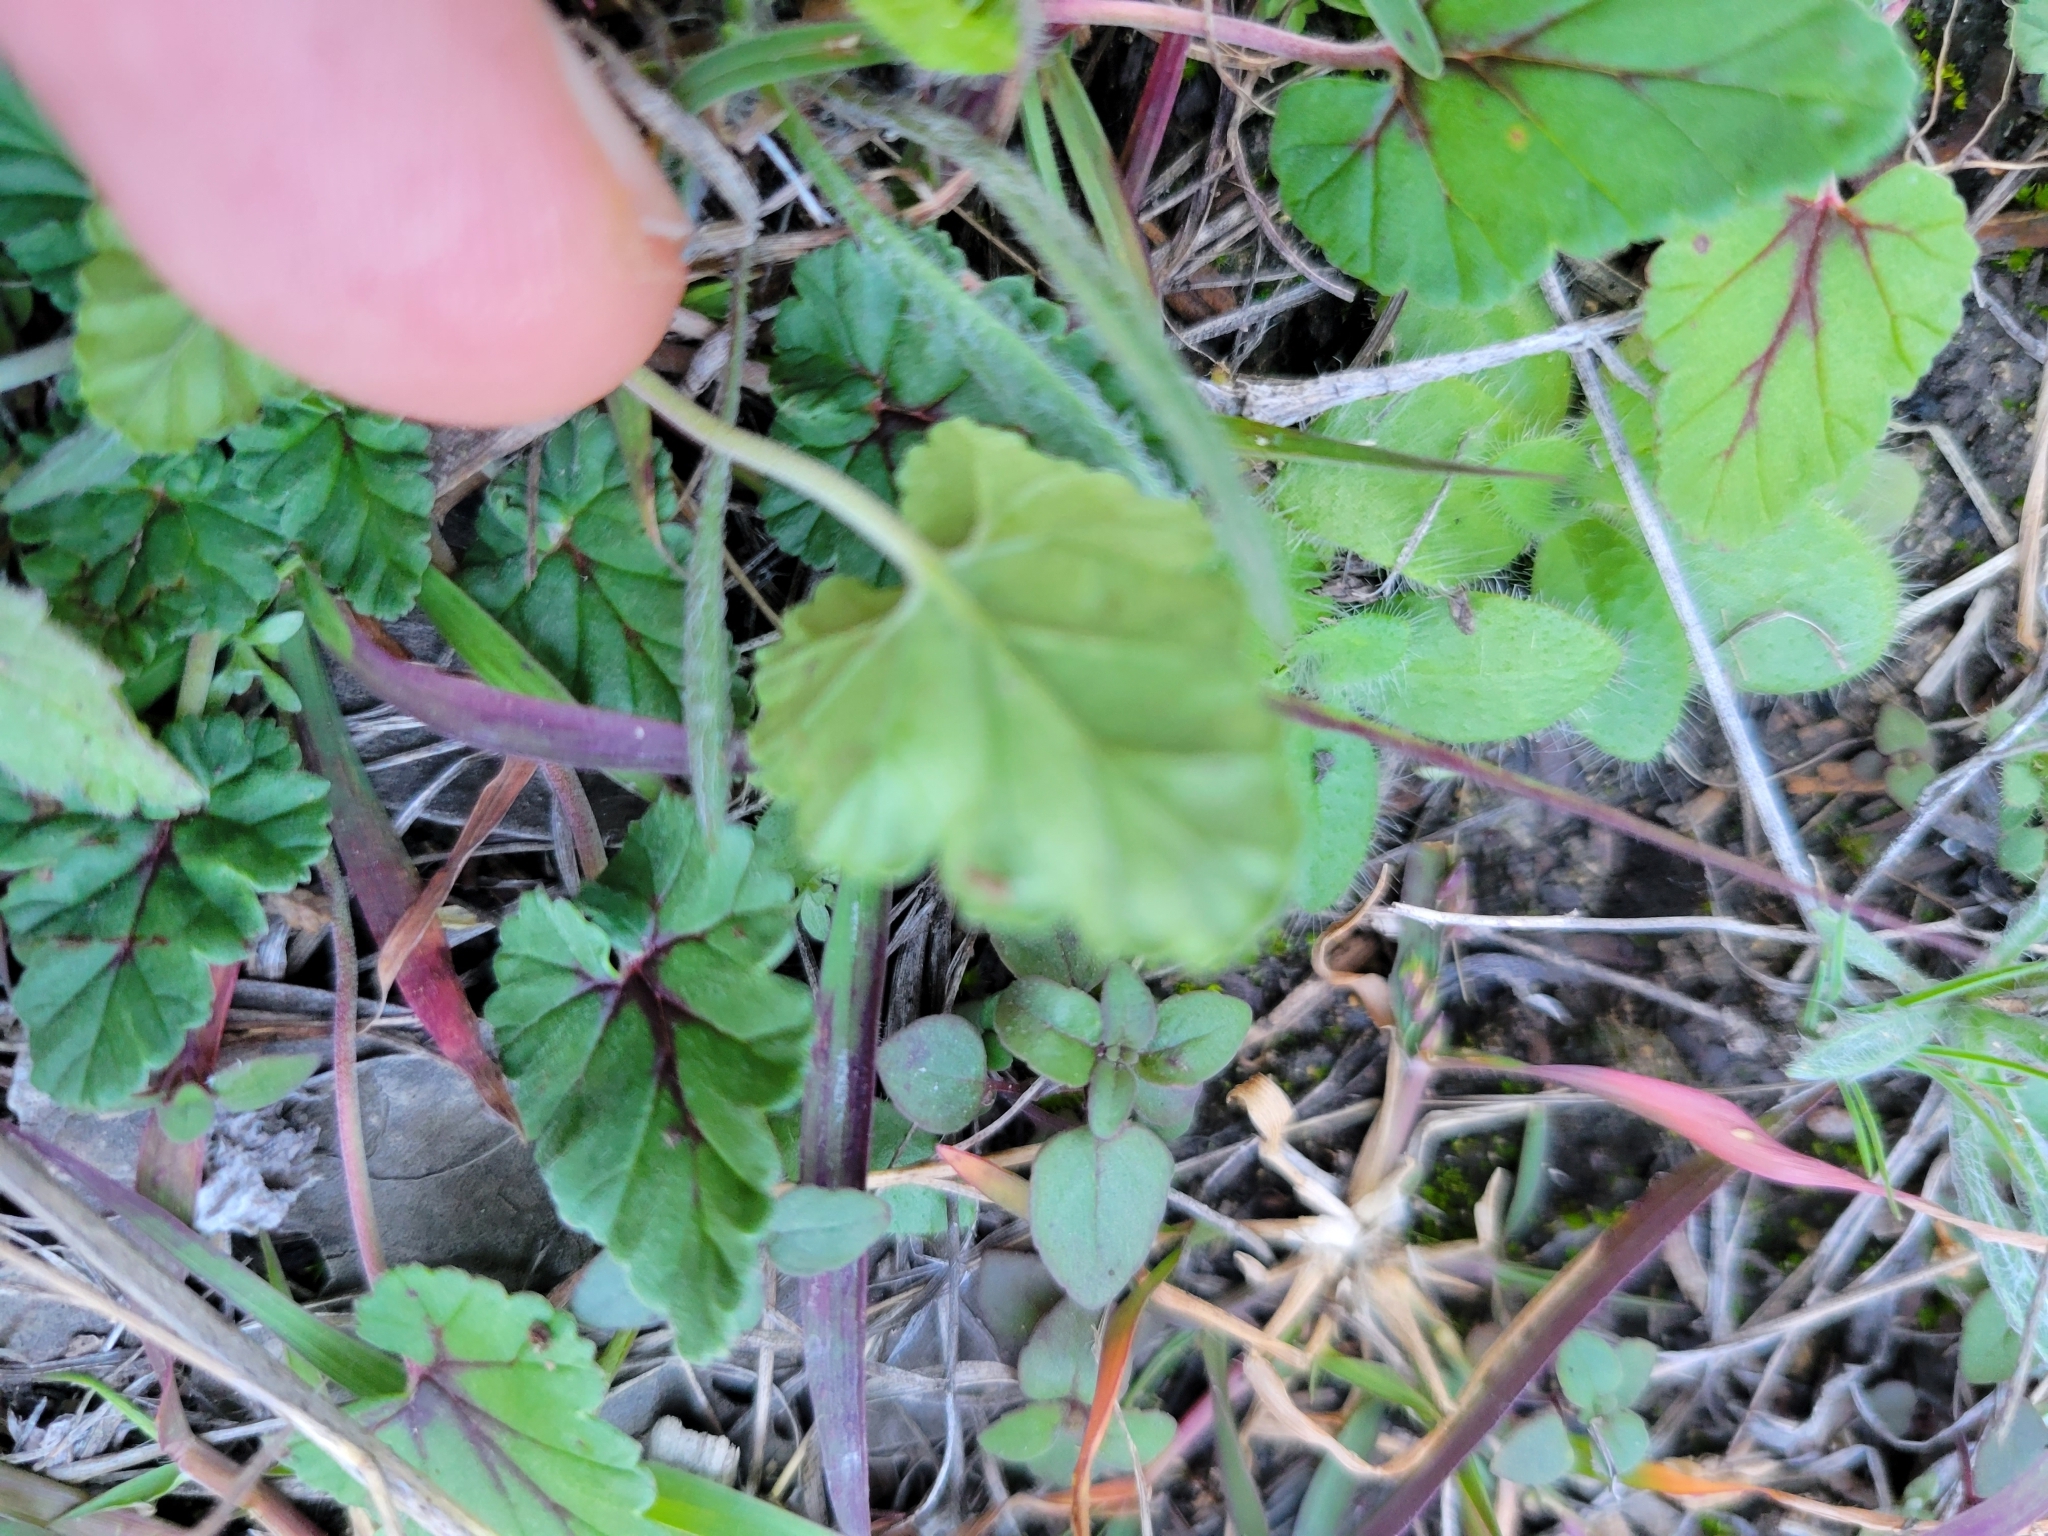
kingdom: Plantae
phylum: Tracheophyta
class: Magnoliopsida
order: Geraniales
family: Geraniaceae
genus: Erodium
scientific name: Erodium texanum
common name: Texas stork's-bill
